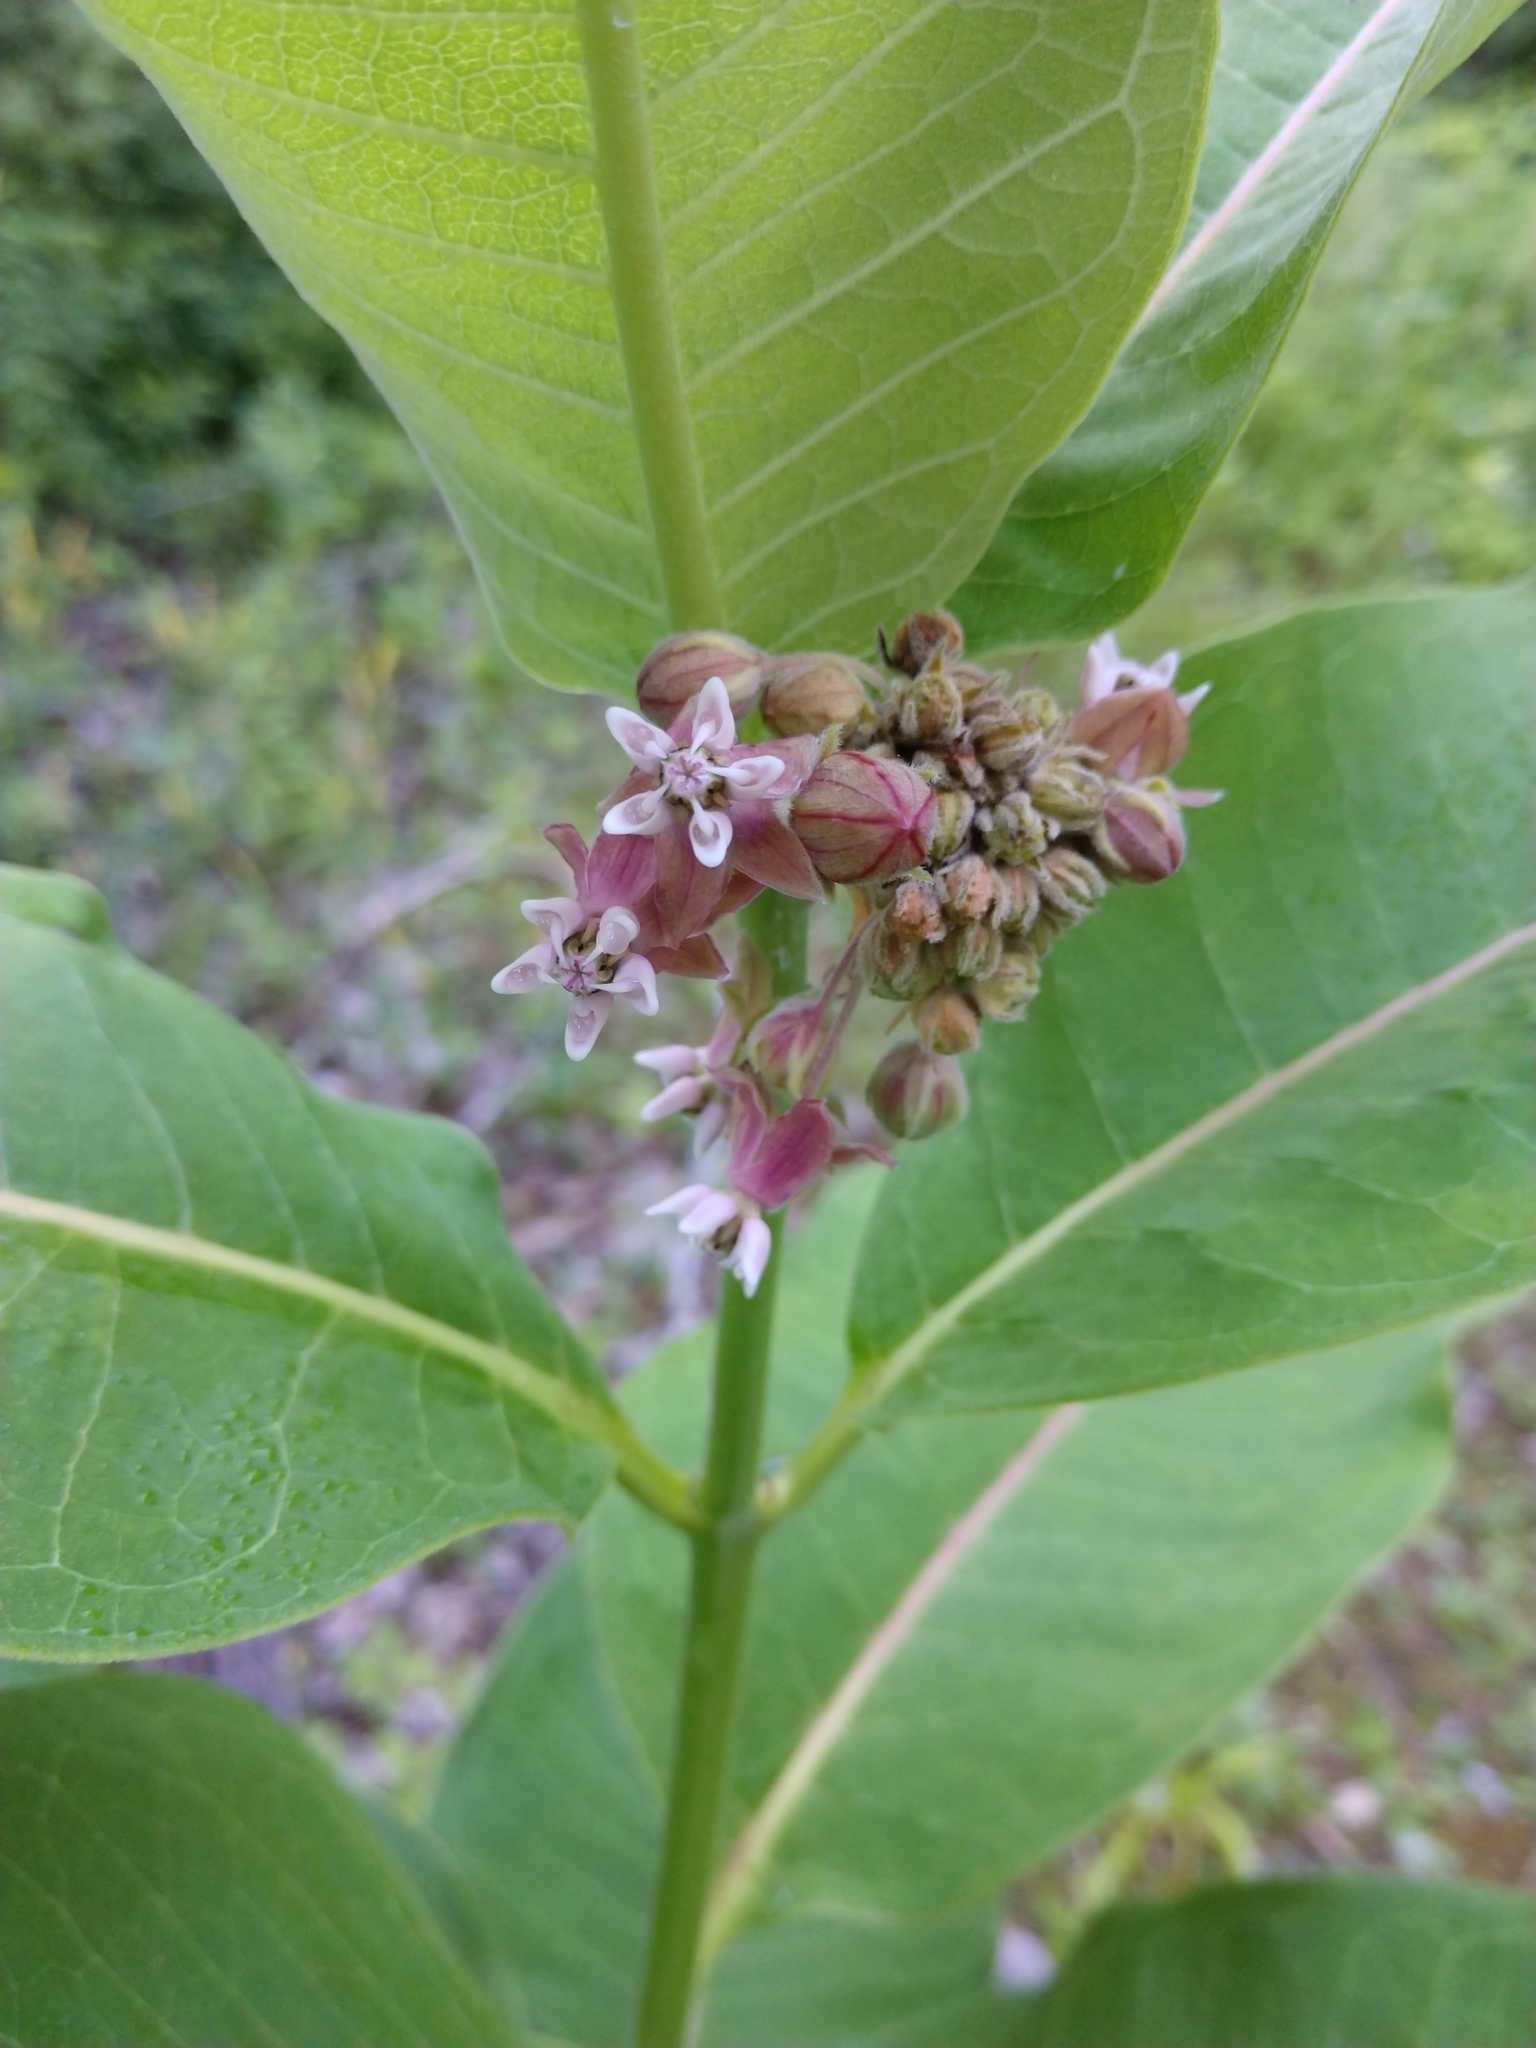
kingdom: Plantae
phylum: Tracheophyta
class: Magnoliopsida
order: Gentianales
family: Apocynaceae
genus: Asclepias
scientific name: Asclepias syriaca
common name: Common milkweed
